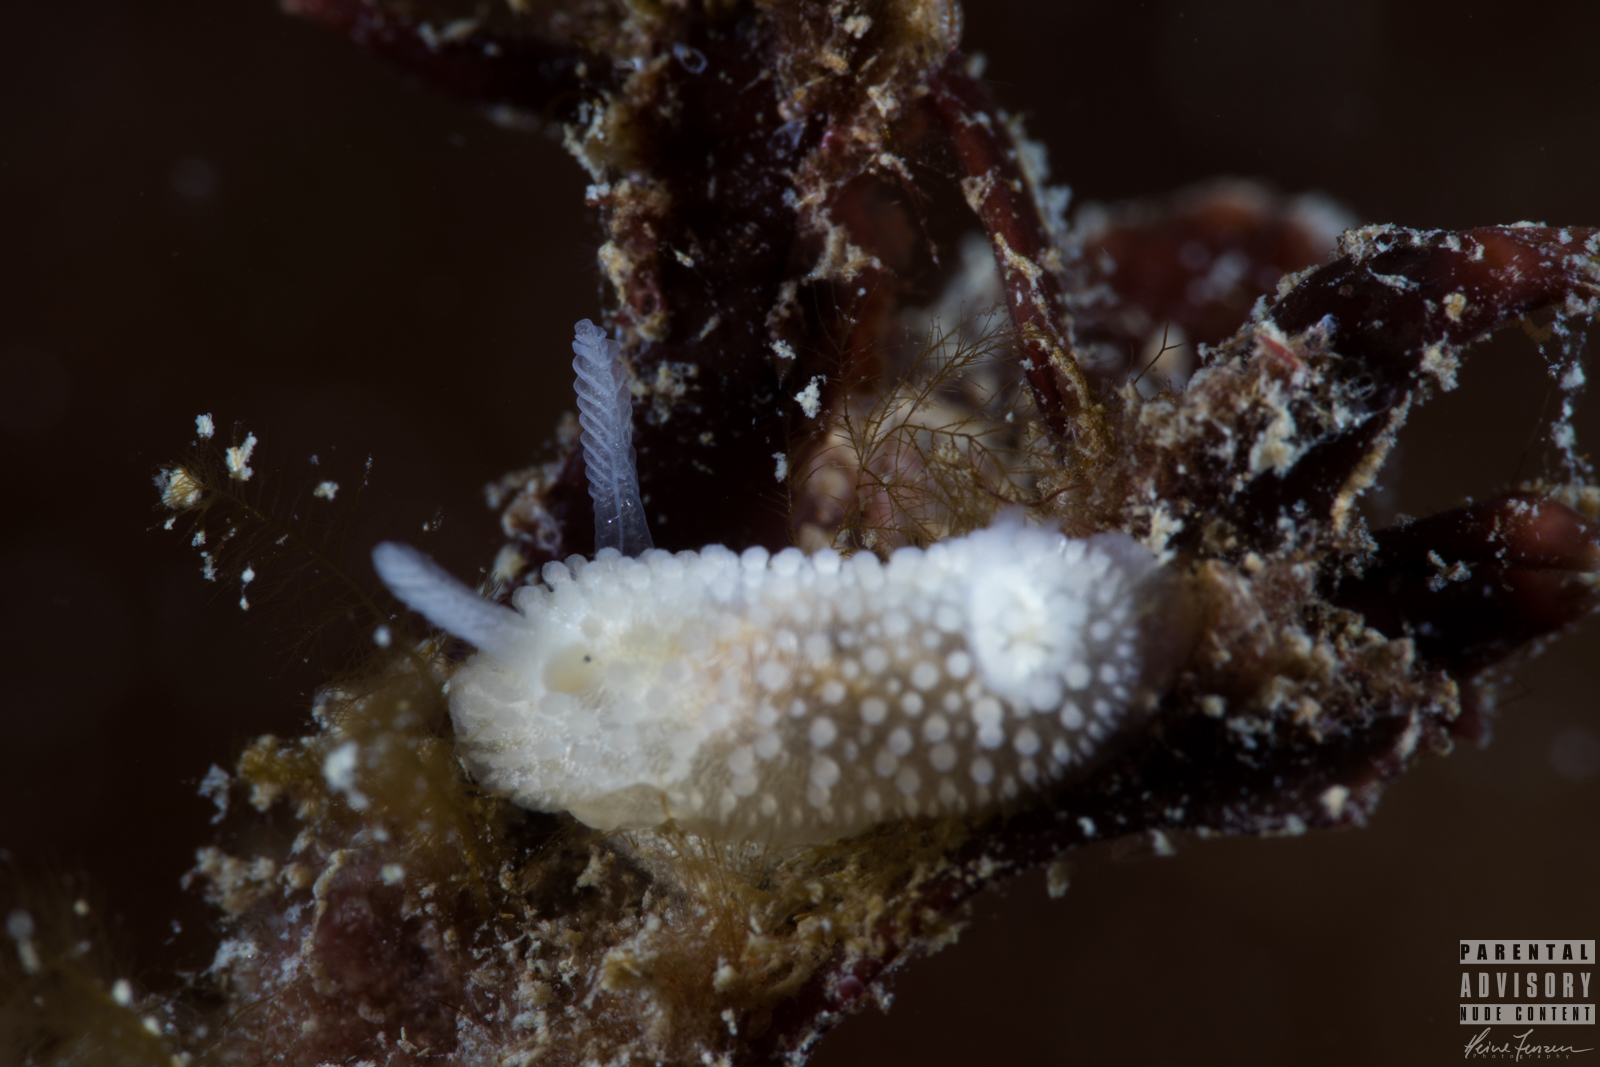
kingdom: Animalia
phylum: Mollusca
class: Gastropoda
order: Nudibranchia
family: Onchidorididae
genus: Onchidoris
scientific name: Onchidoris muricata
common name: Rough doris
